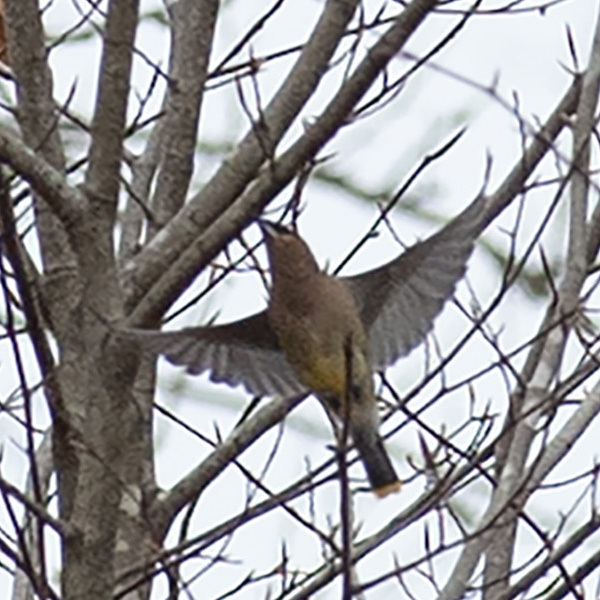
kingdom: Animalia
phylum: Chordata
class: Aves
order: Passeriformes
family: Bombycillidae
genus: Bombycilla
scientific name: Bombycilla cedrorum
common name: Cedar waxwing
